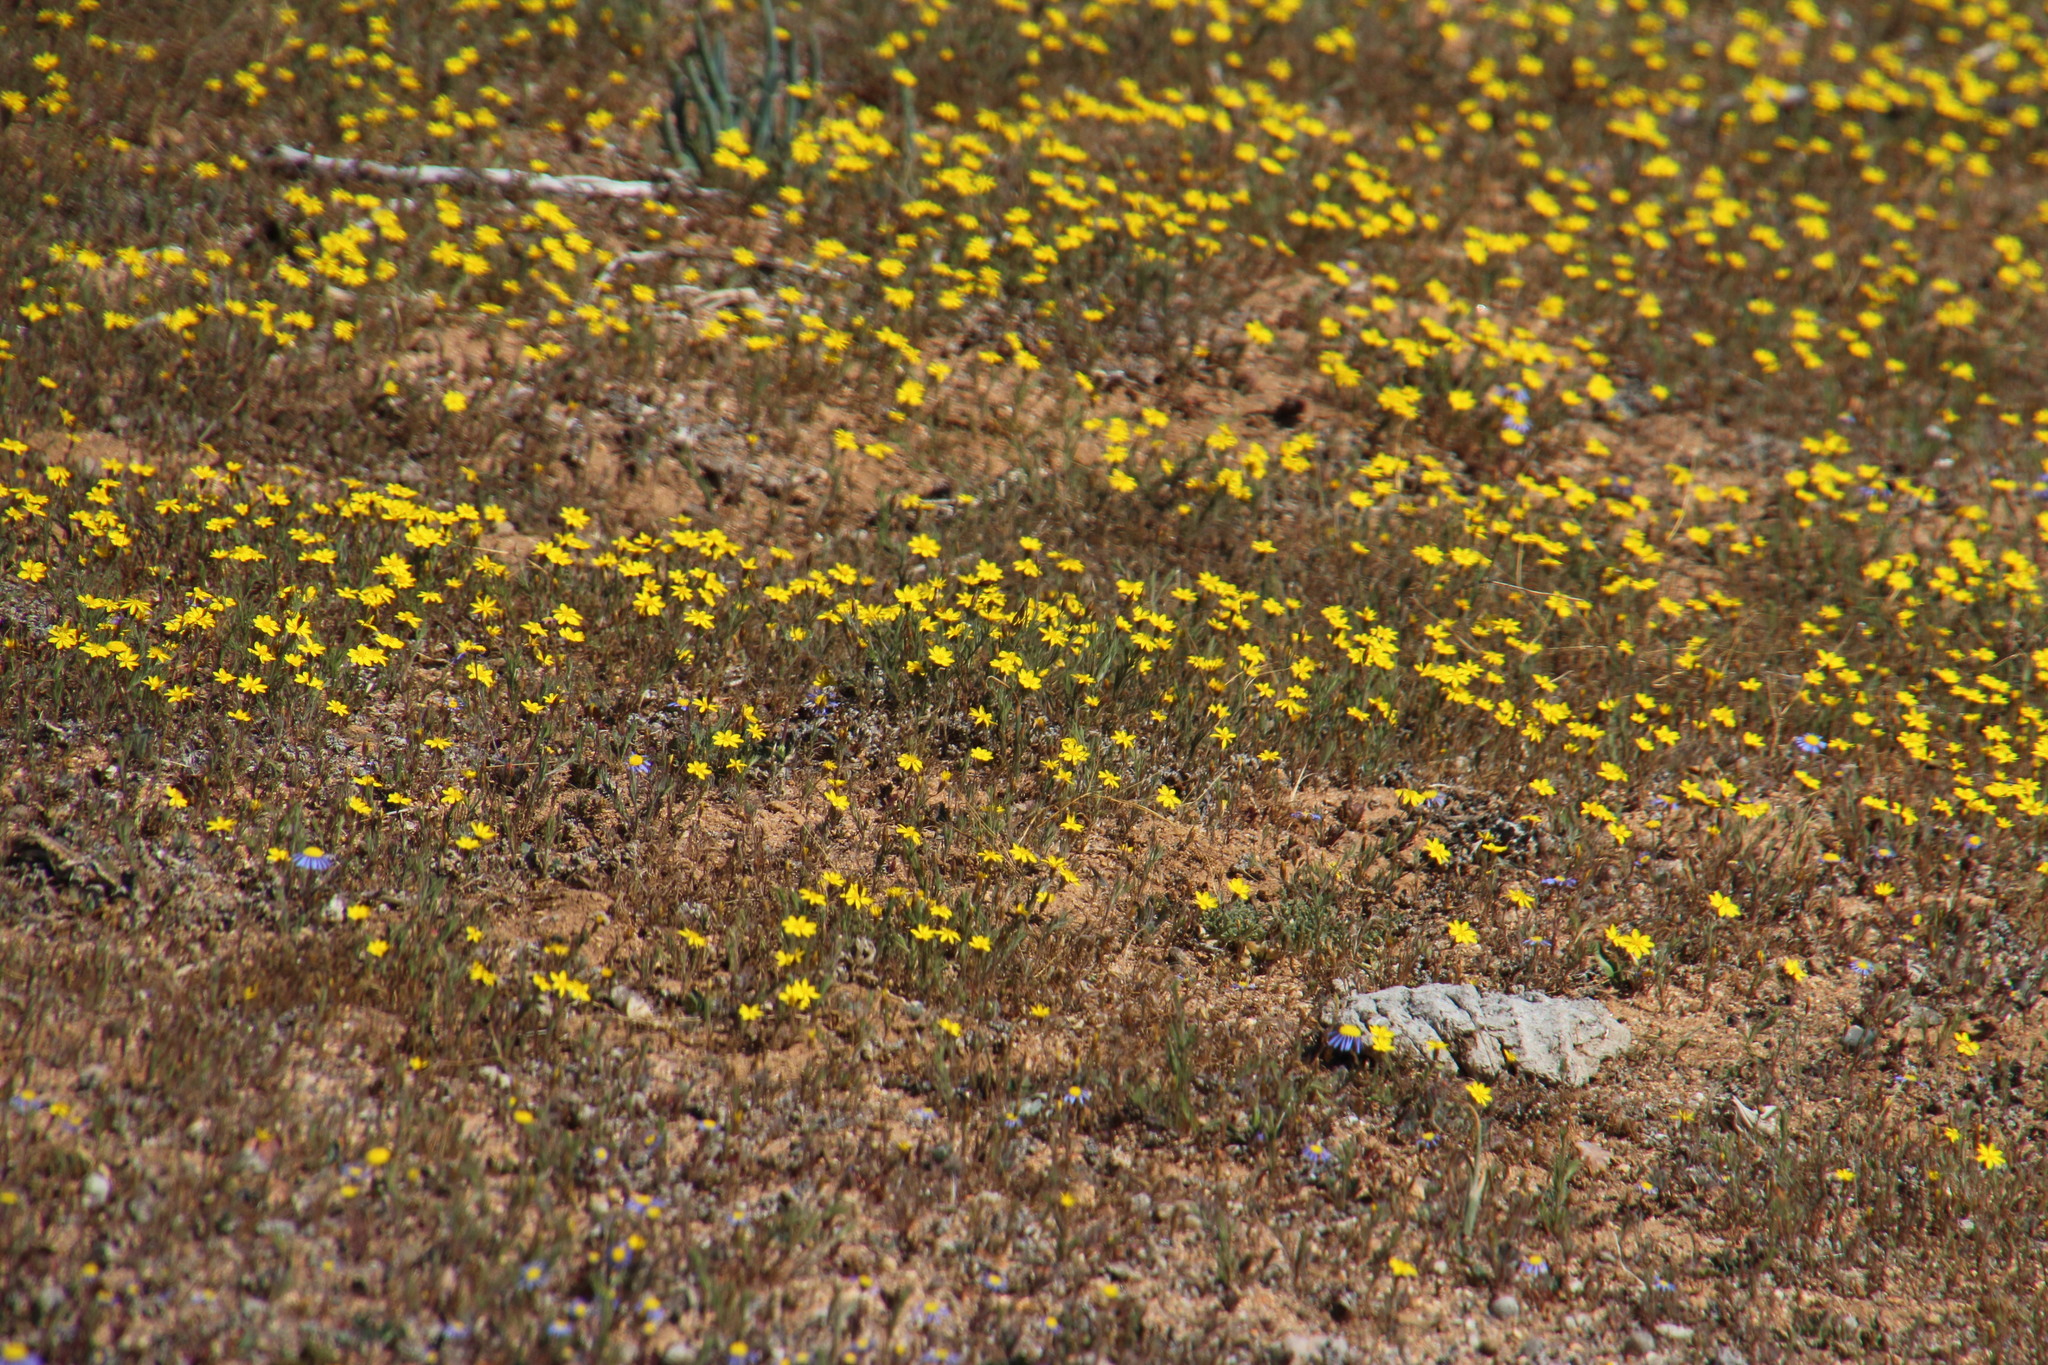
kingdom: Plantae
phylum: Tracheophyta
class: Magnoliopsida
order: Asterales
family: Asteraceae
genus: Leysera
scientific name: Leysera tenella
